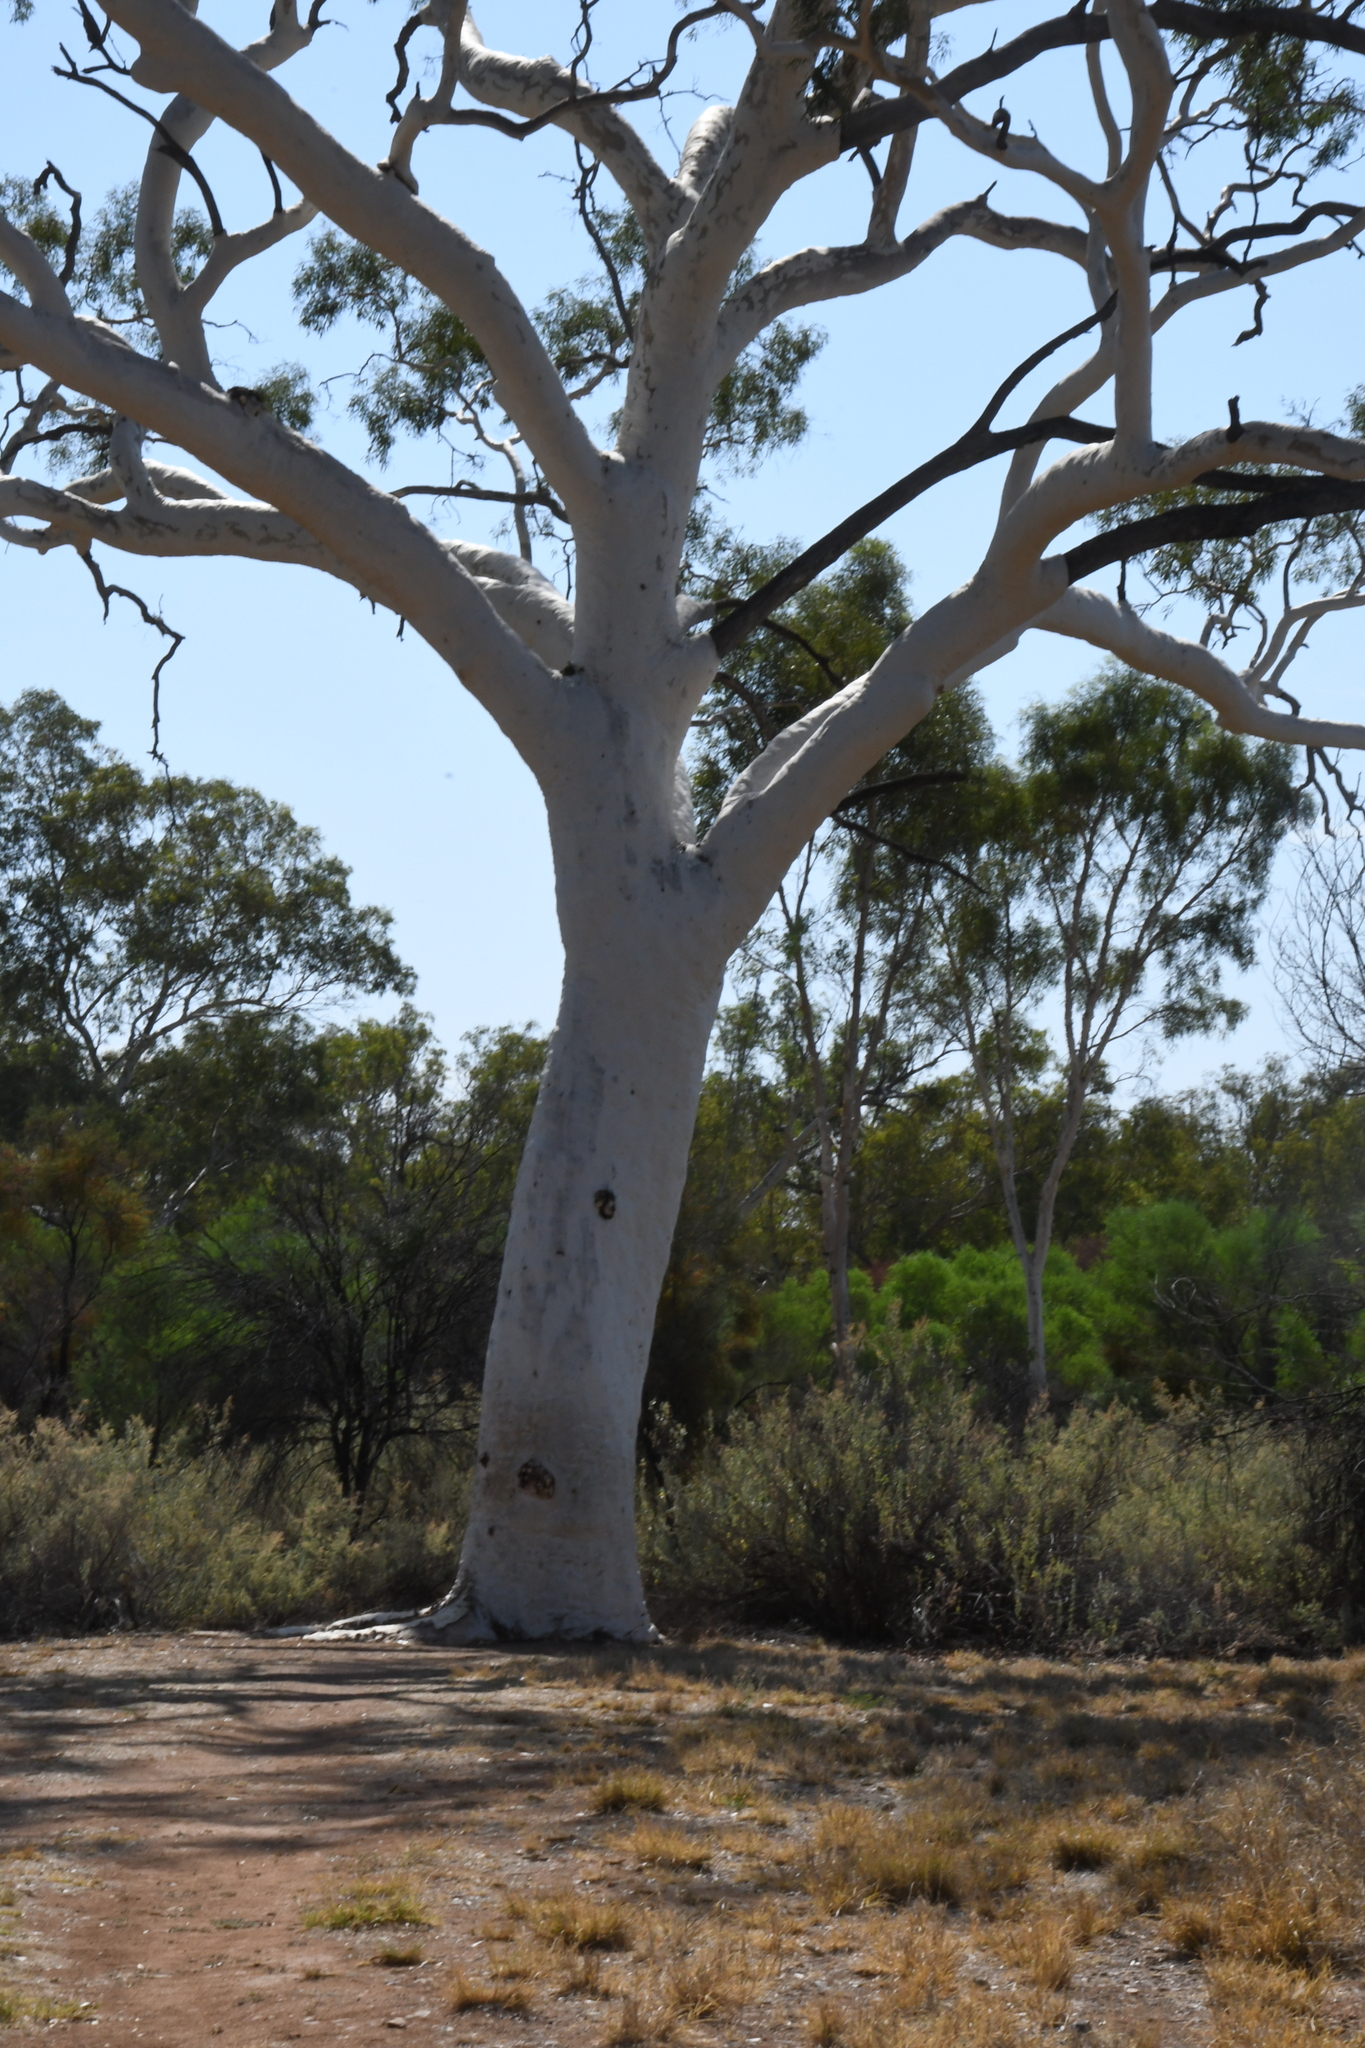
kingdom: Plantae
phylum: Tracheophyta
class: Magnoliopsida
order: Myrtales
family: Myrtaceae
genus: Corymbia
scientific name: Corymbia aparrerinja
